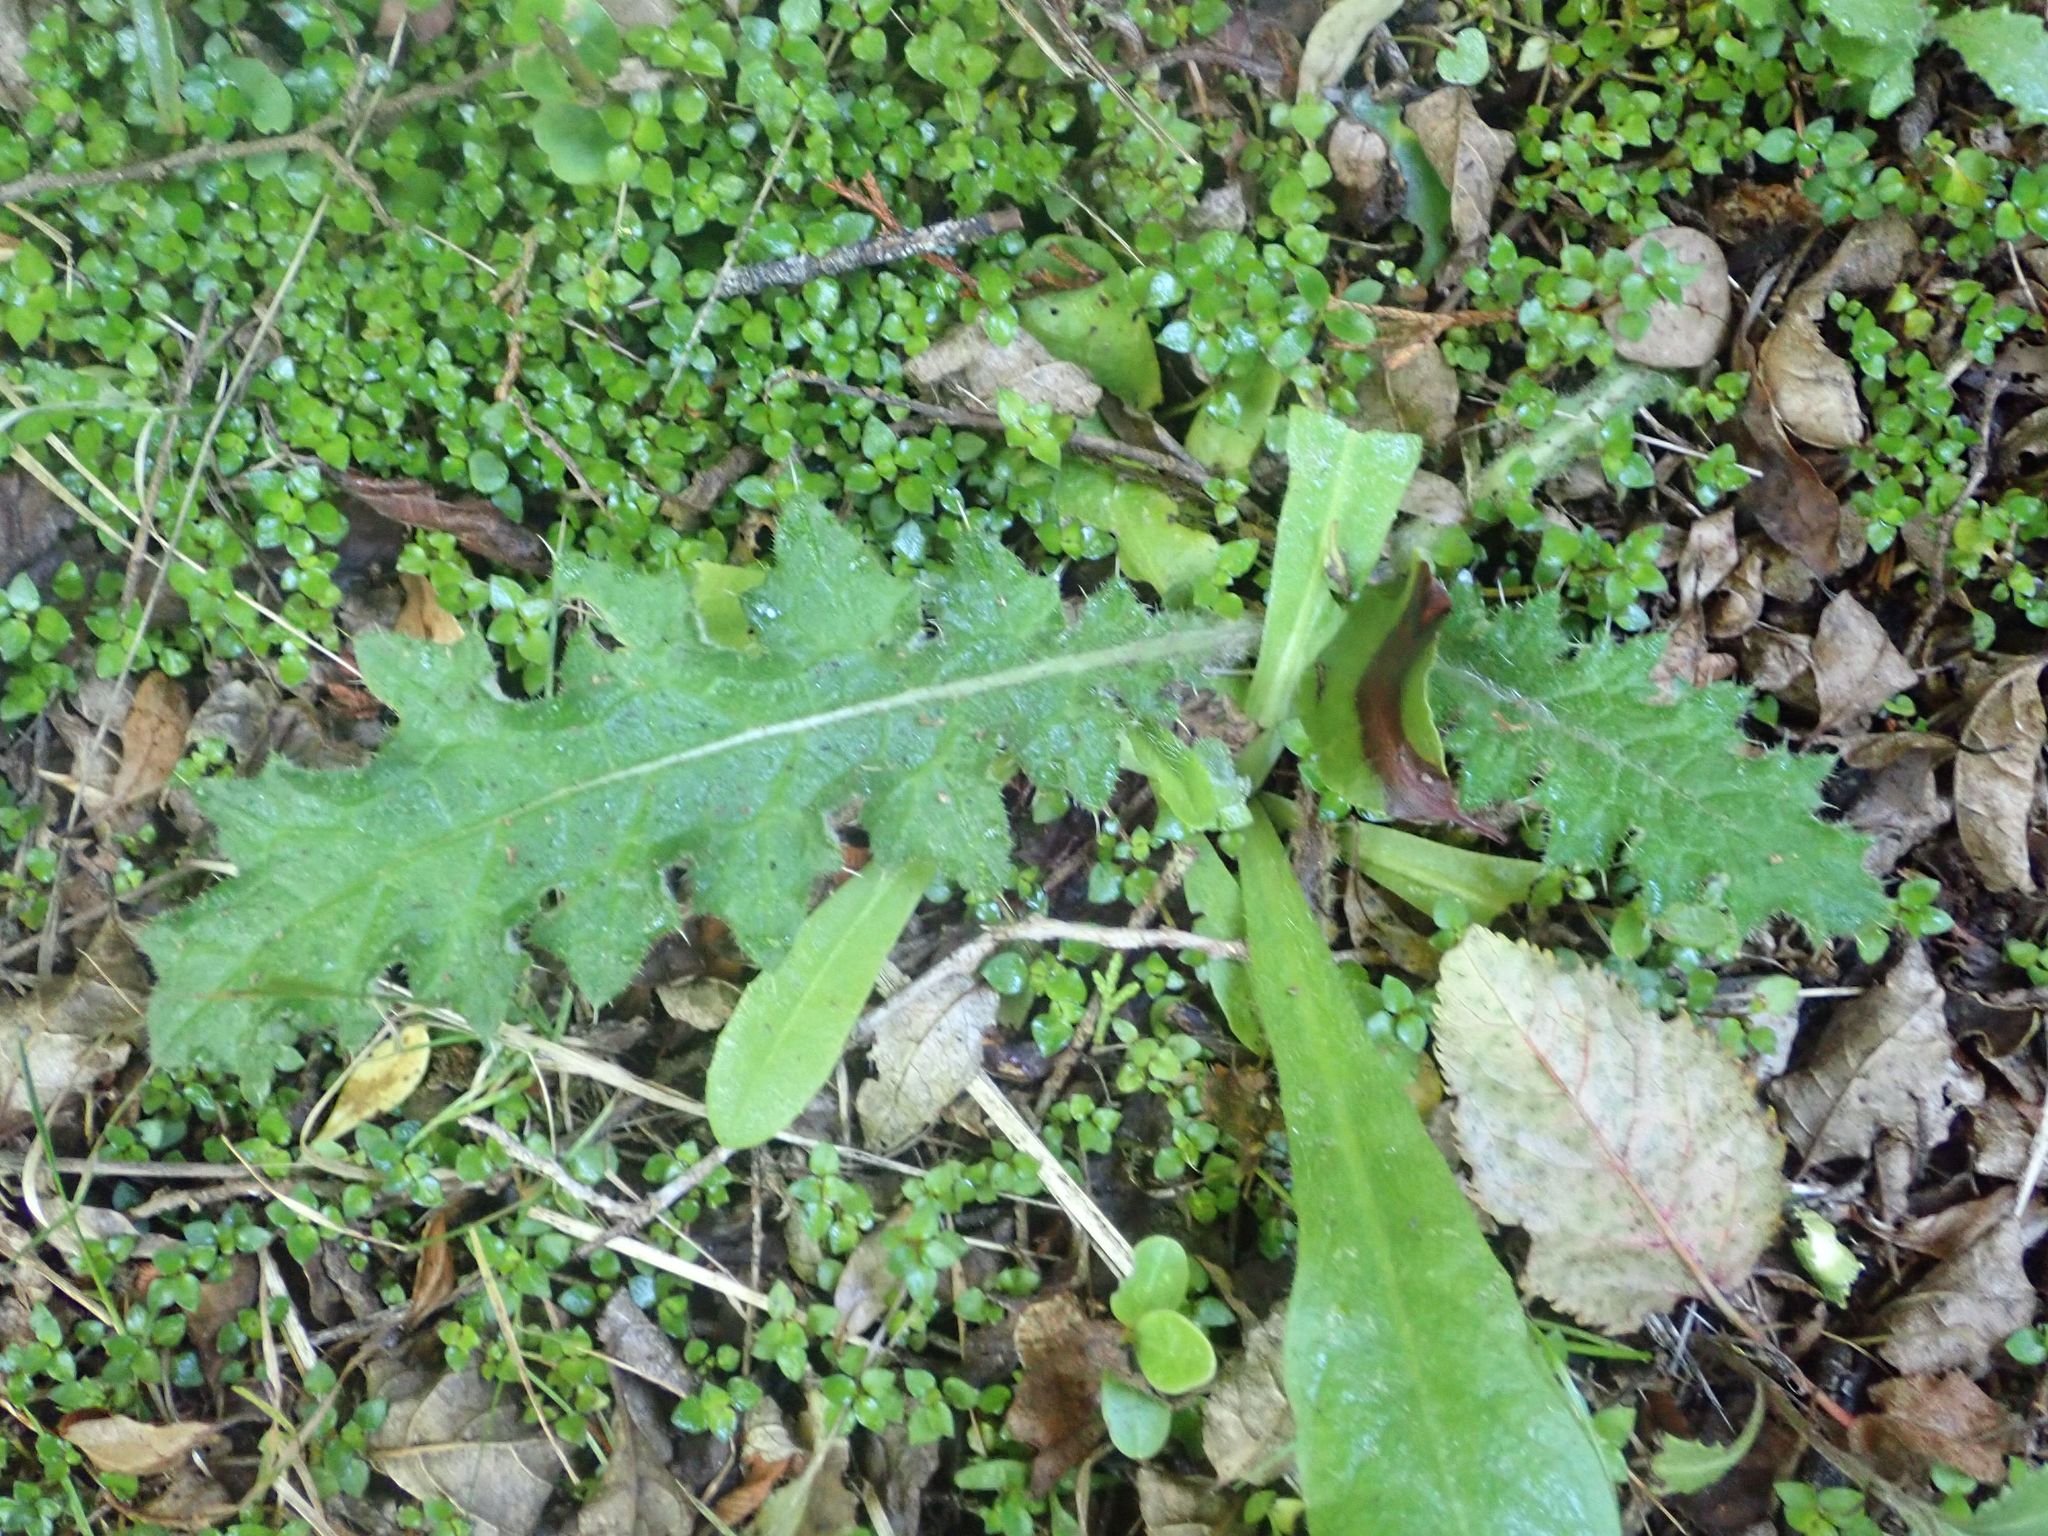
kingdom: Plantae
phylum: Tracheophyta
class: Magnoliopsida
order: Asterales
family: Asteraceae
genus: Cirsium
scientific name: Cirsium vulgare
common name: Bull thistle
